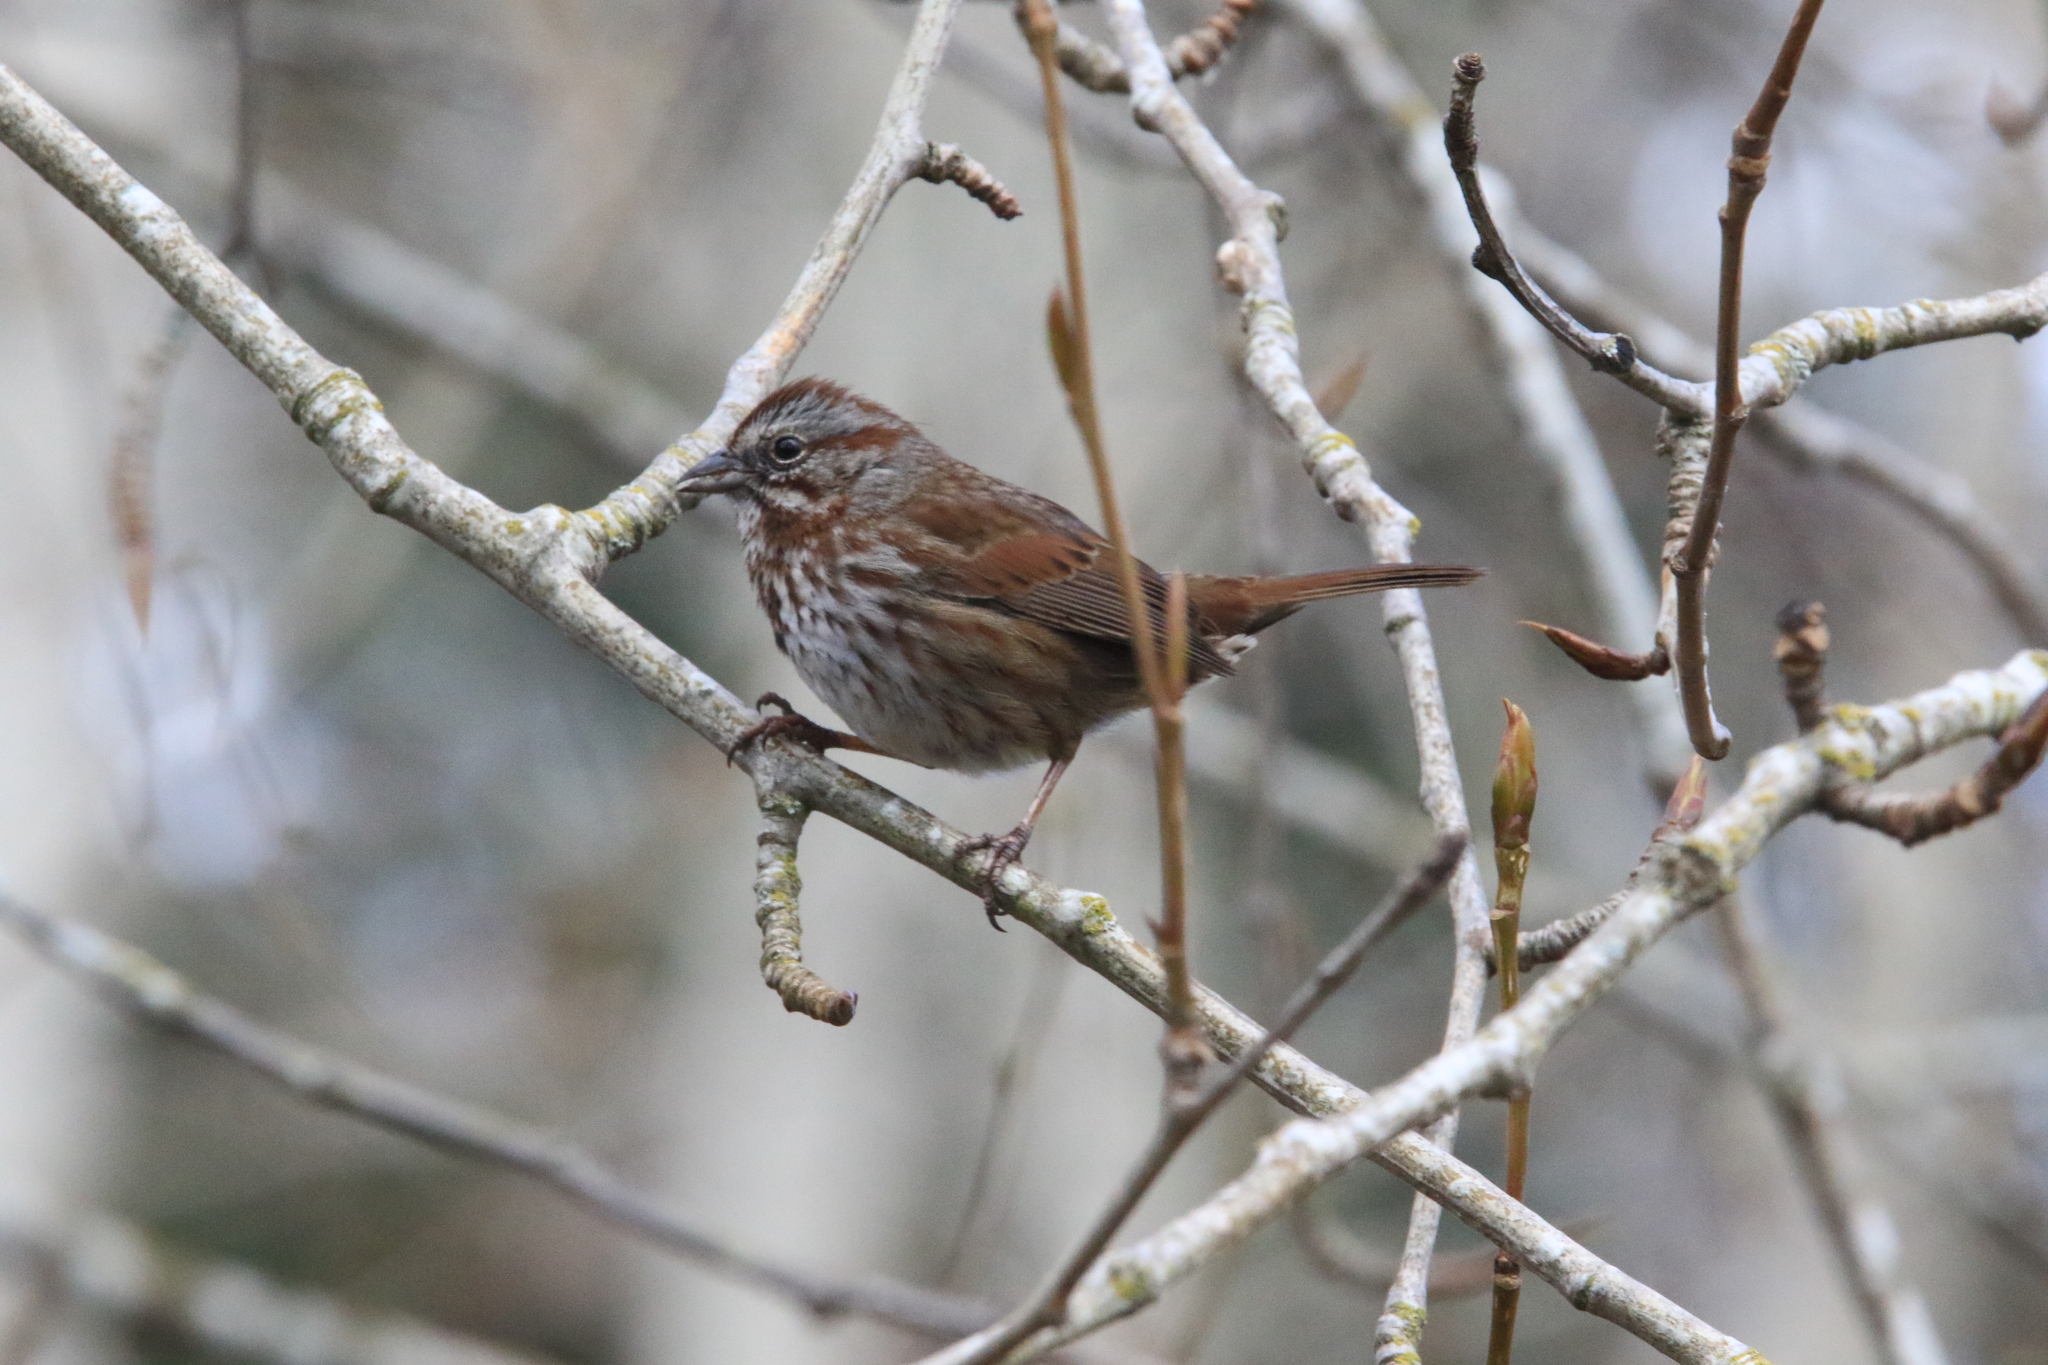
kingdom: Animalia
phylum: Chordata
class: Aves
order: Passeriformes
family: Passerellidae
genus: Melospiza
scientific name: Melospiza melodia
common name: Song sparrow
